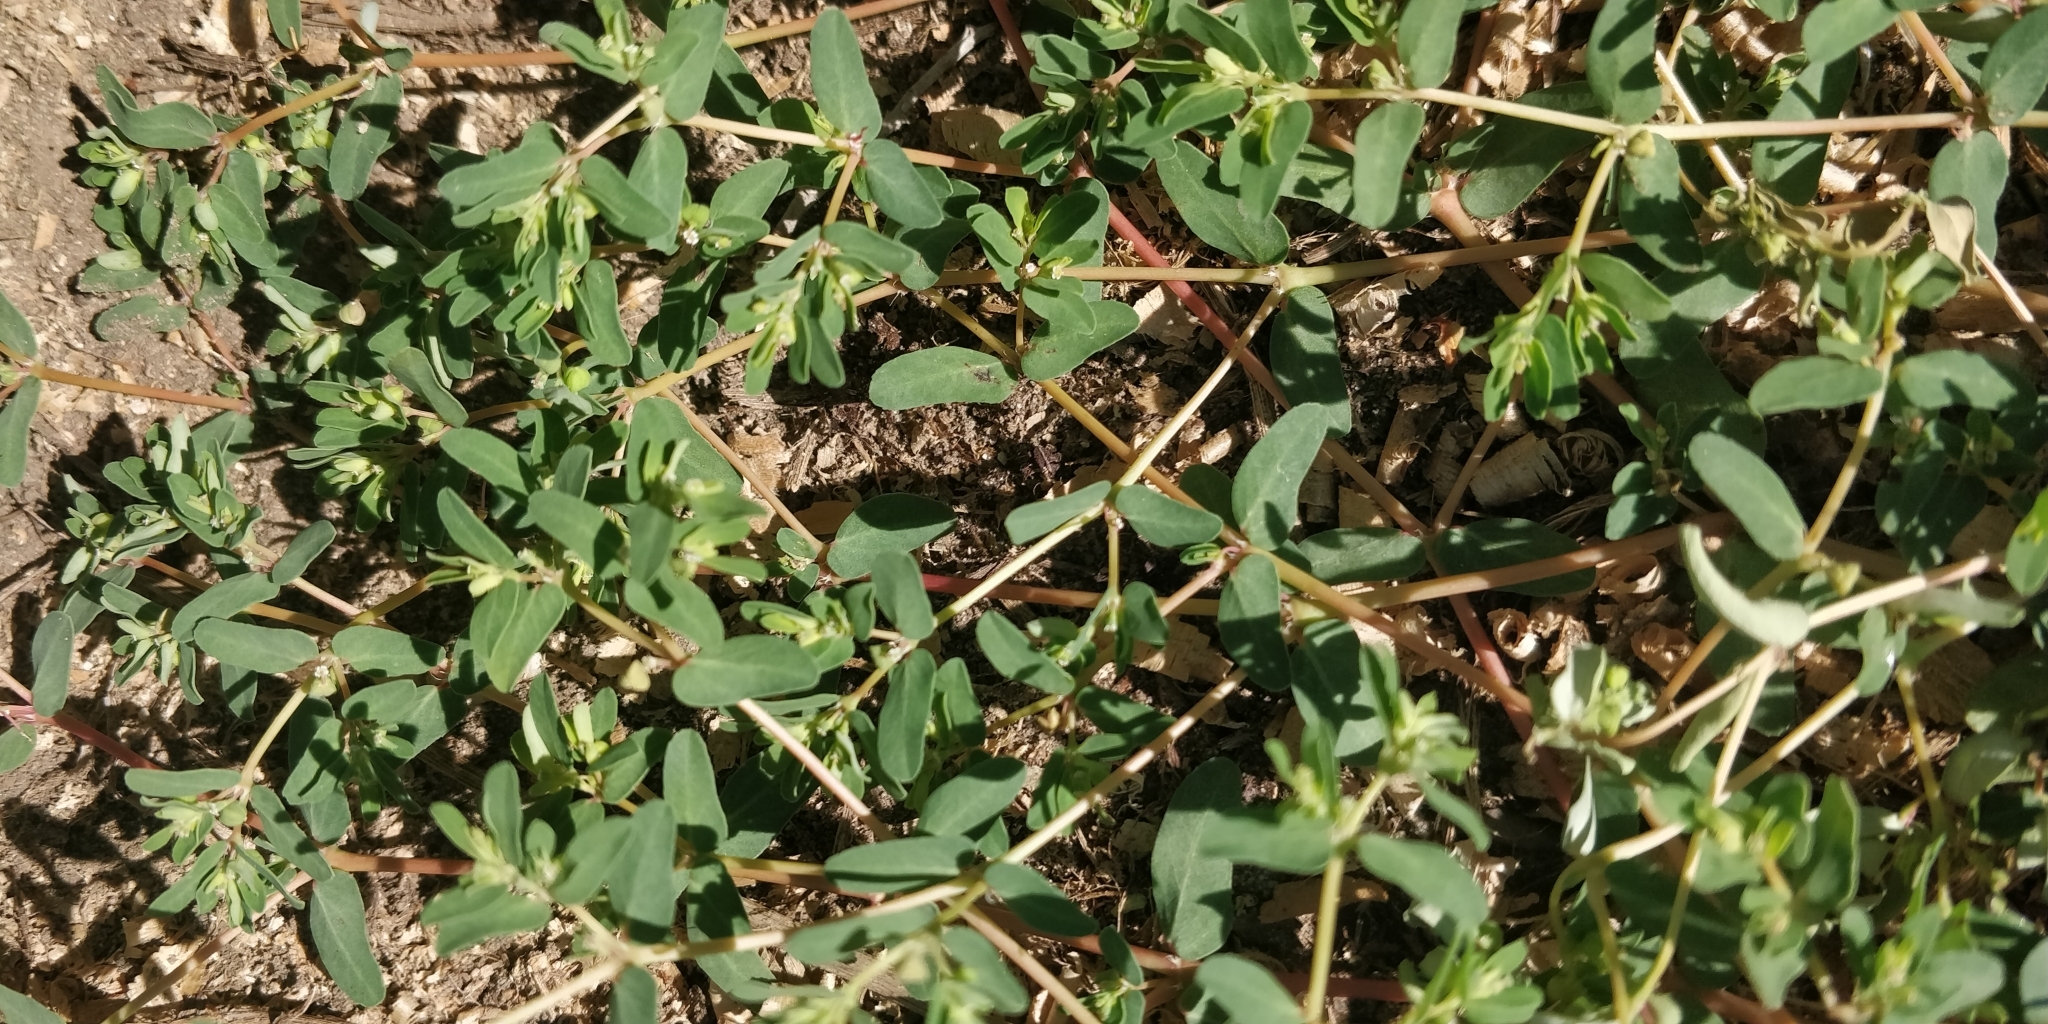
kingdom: Plantae
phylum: Tracheophyta
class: Magnoliopsida
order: Malpighiales
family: Euphorbiaceae
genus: Euphorbia
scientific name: Euphorbia glyptosperma
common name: Corrugate-seeded spurge
